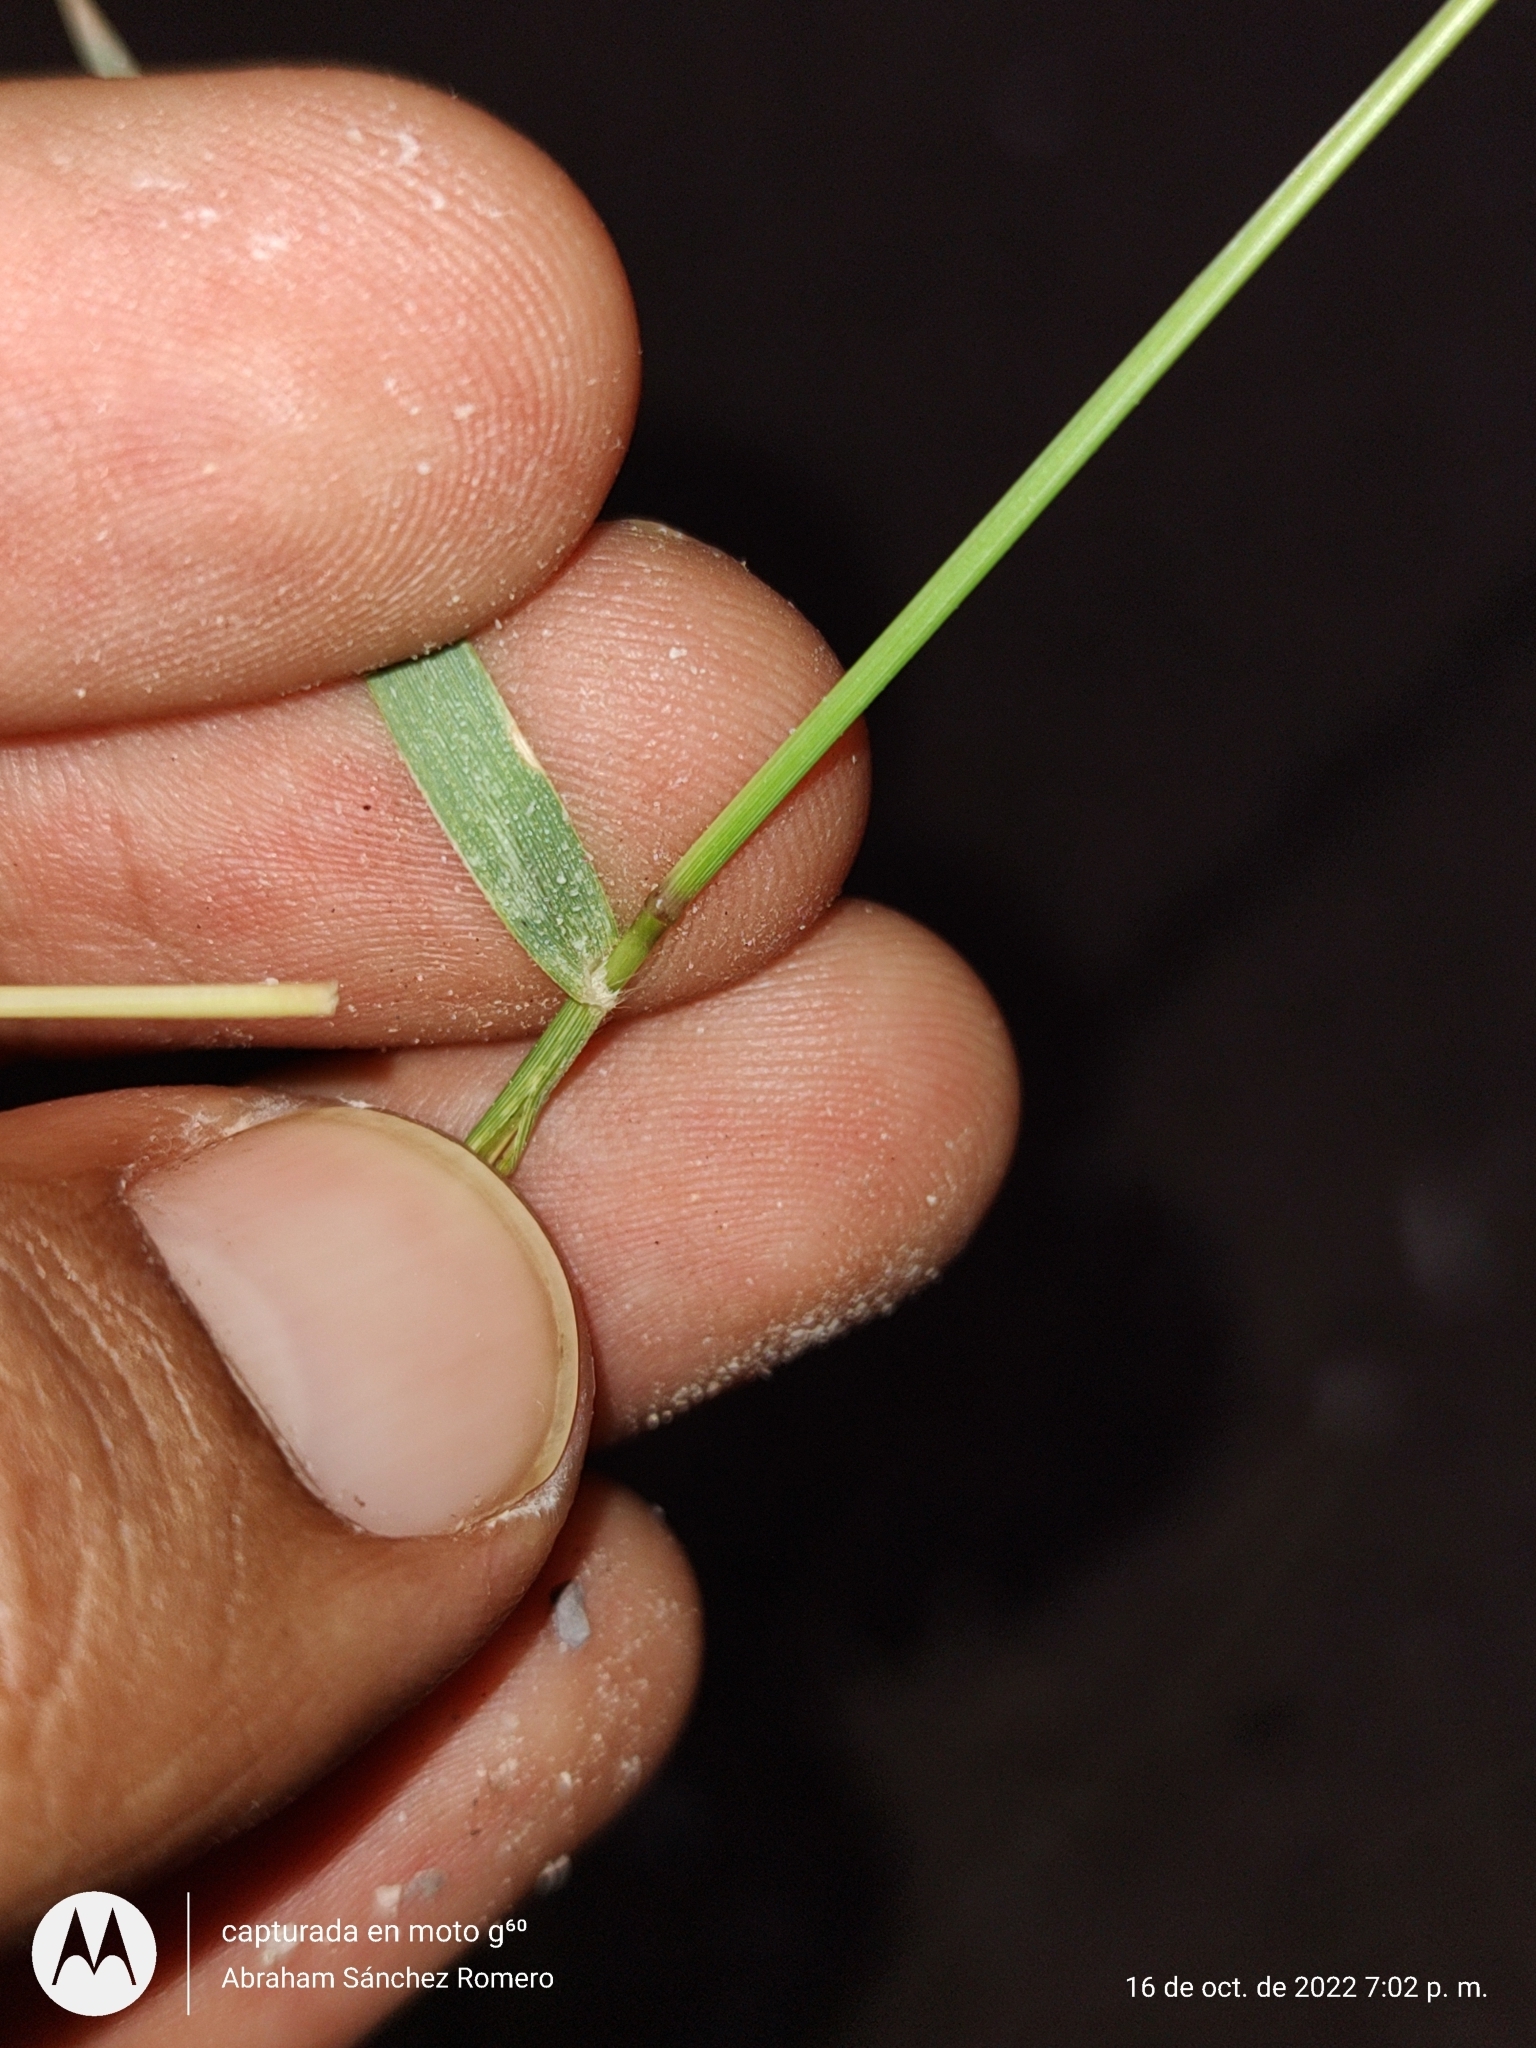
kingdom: Plantae
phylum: Tracheophyta
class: Liliopsida
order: Poales
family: Poaceae
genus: Sporobolus
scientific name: Sporobolus pyramidatus
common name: Whorled dropseed
